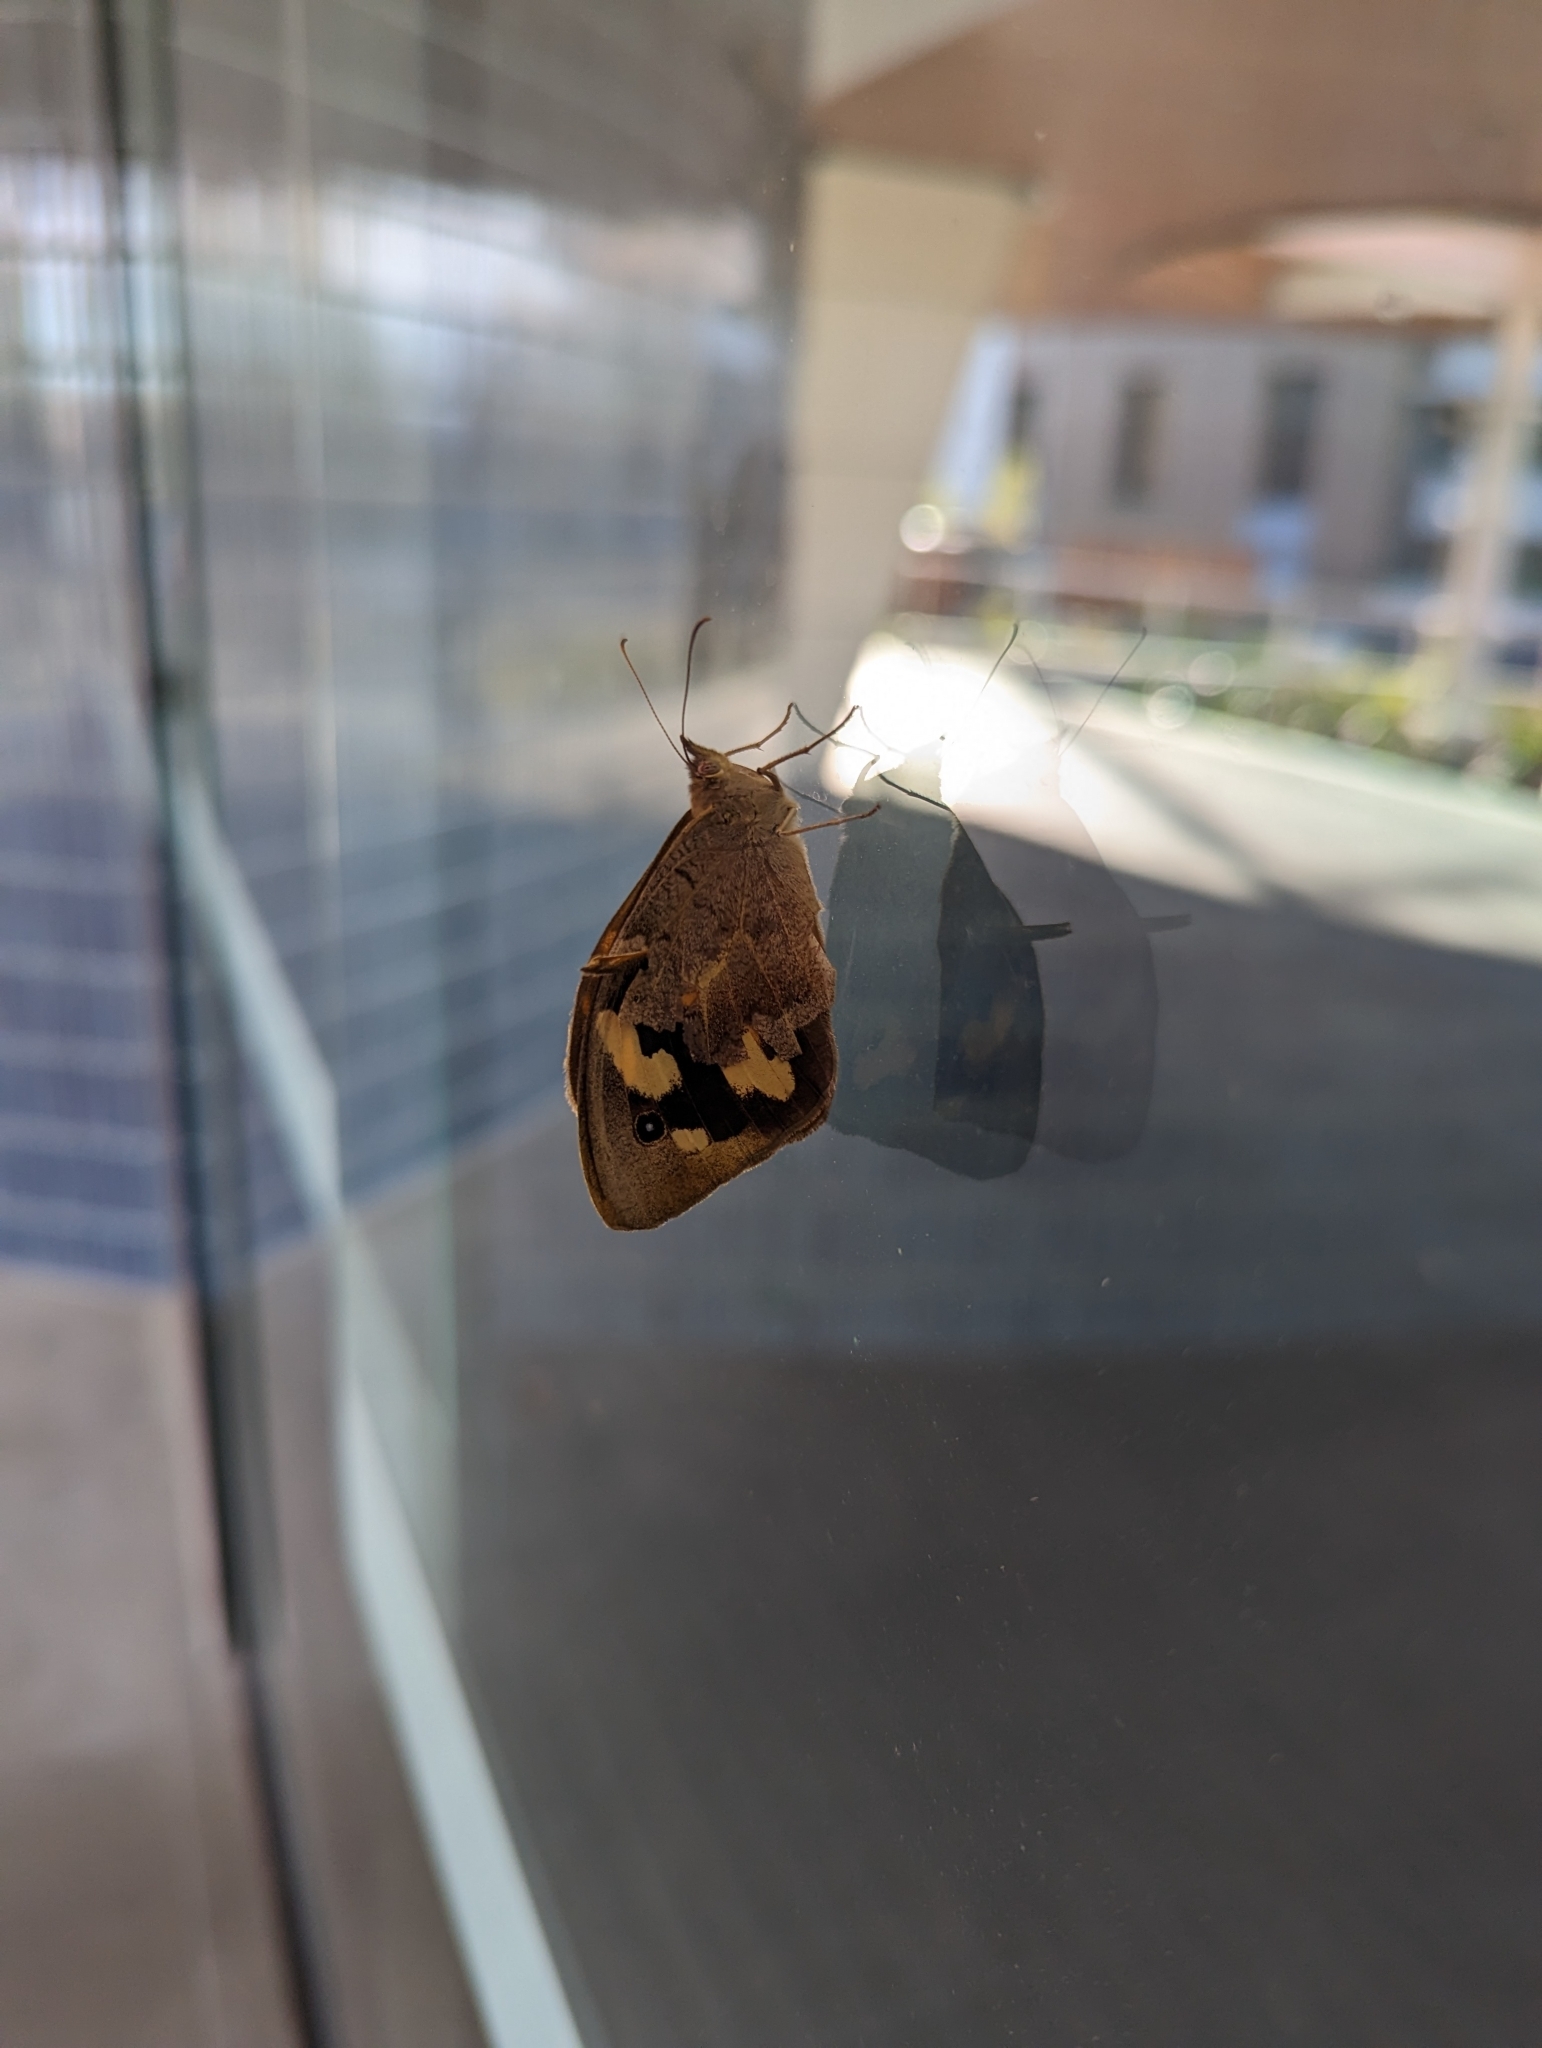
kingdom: Animalia
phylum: Arthropoda
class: Insecta
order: Lepidoptera
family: Nymphalidae
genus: Heteronympha
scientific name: Heteronympha merope
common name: Common brown
